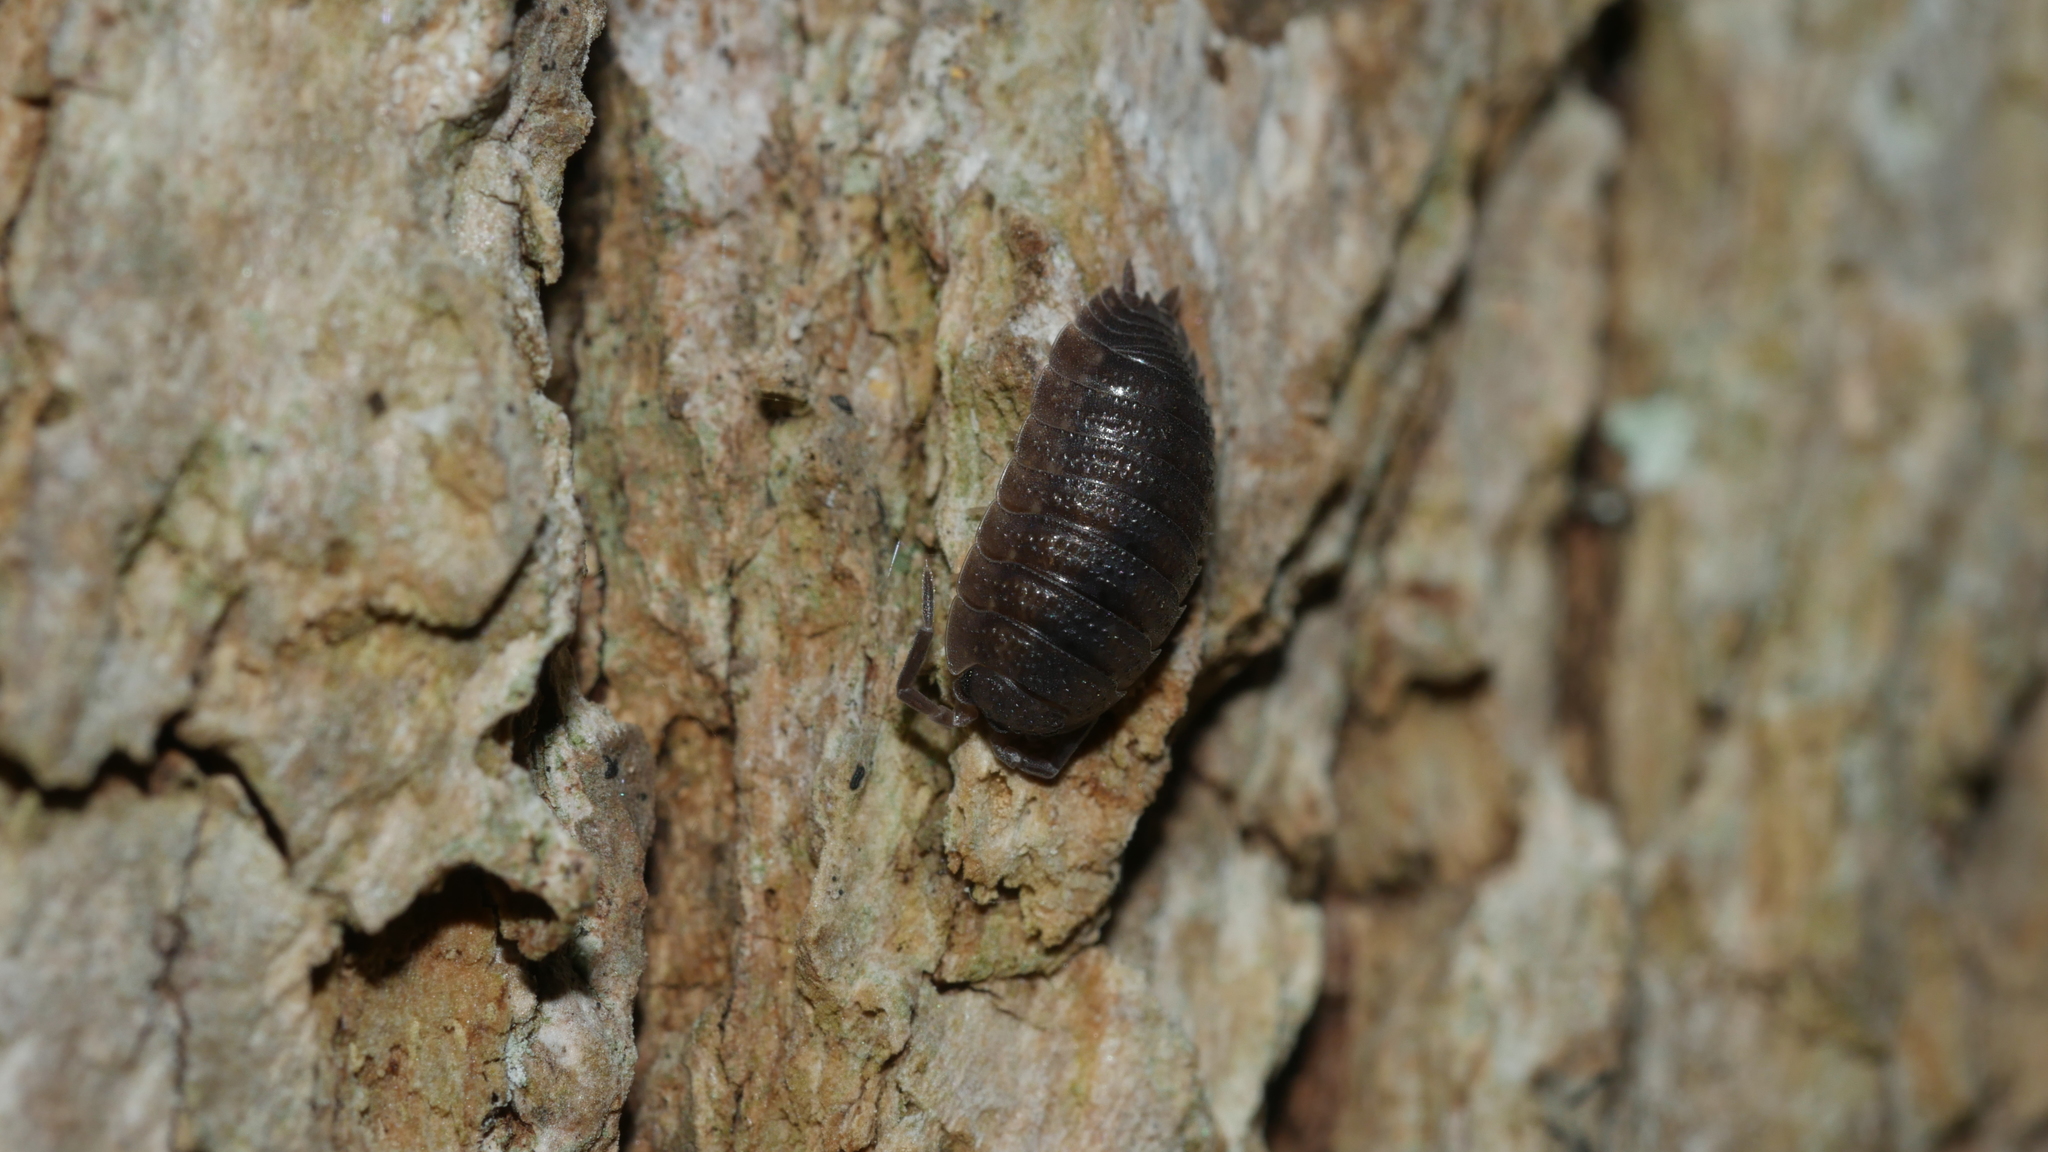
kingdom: Animalia
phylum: Arthropoda
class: Malacostraca
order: Isopoda
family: Porcellionidae
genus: Porcellio
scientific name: Porcellio scaber
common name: Common rough woodlouse
